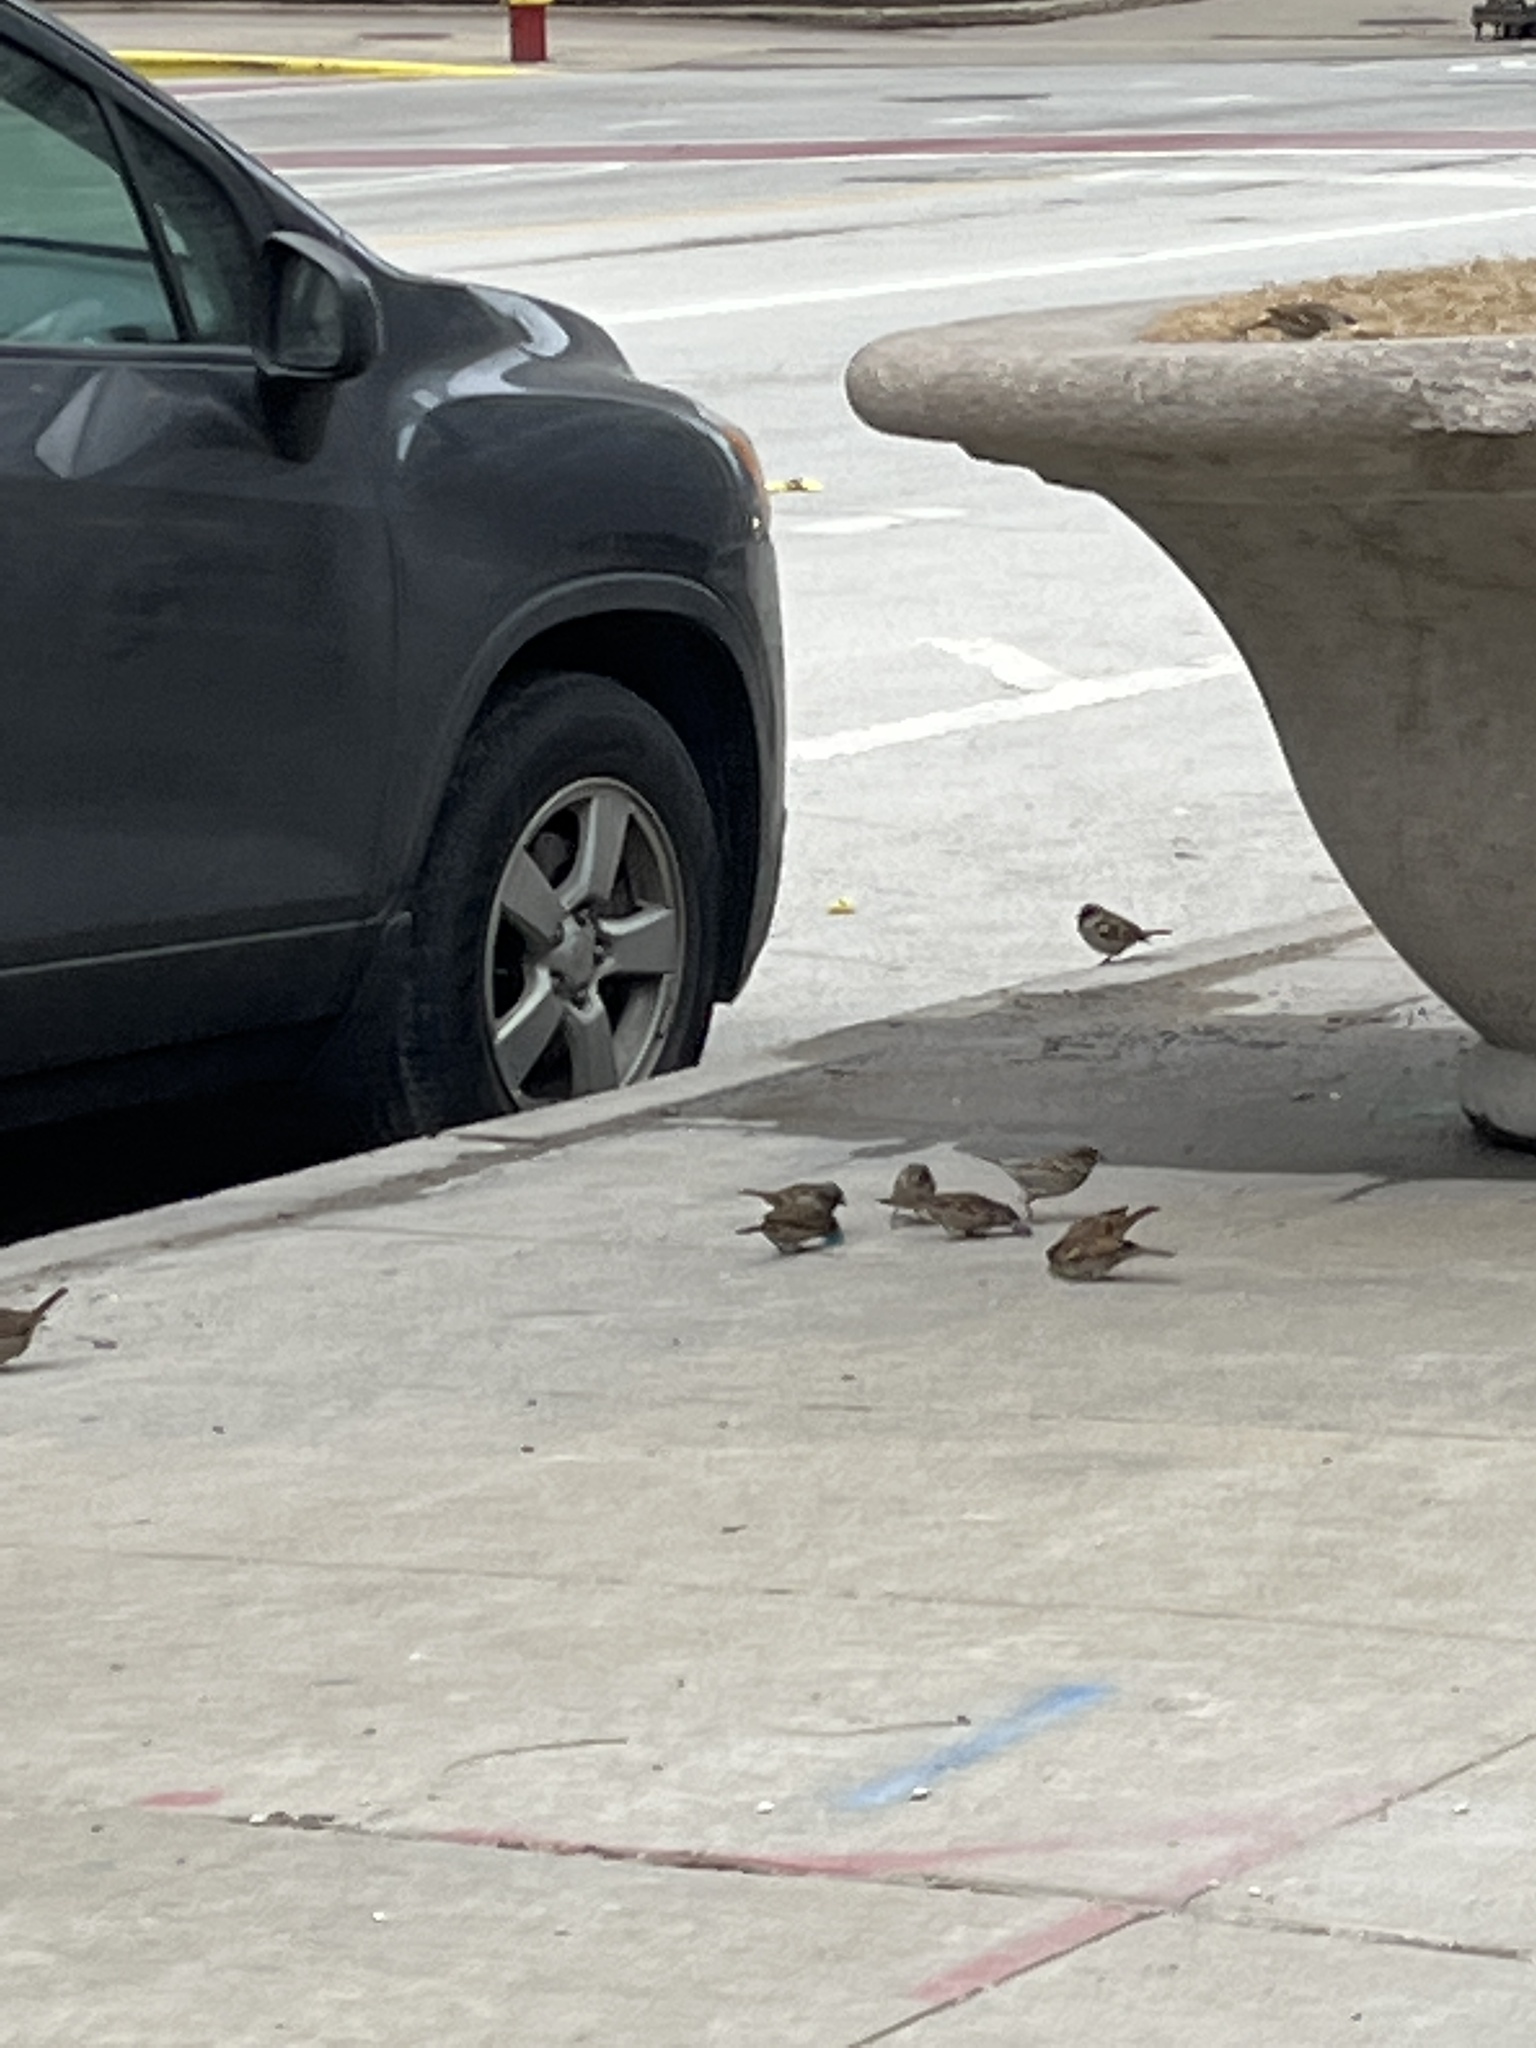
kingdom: Animalia
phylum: Chordata
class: Aves
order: Passeriformes
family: Passeridae
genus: Passer
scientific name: Passer domesticus
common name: House sparrow
